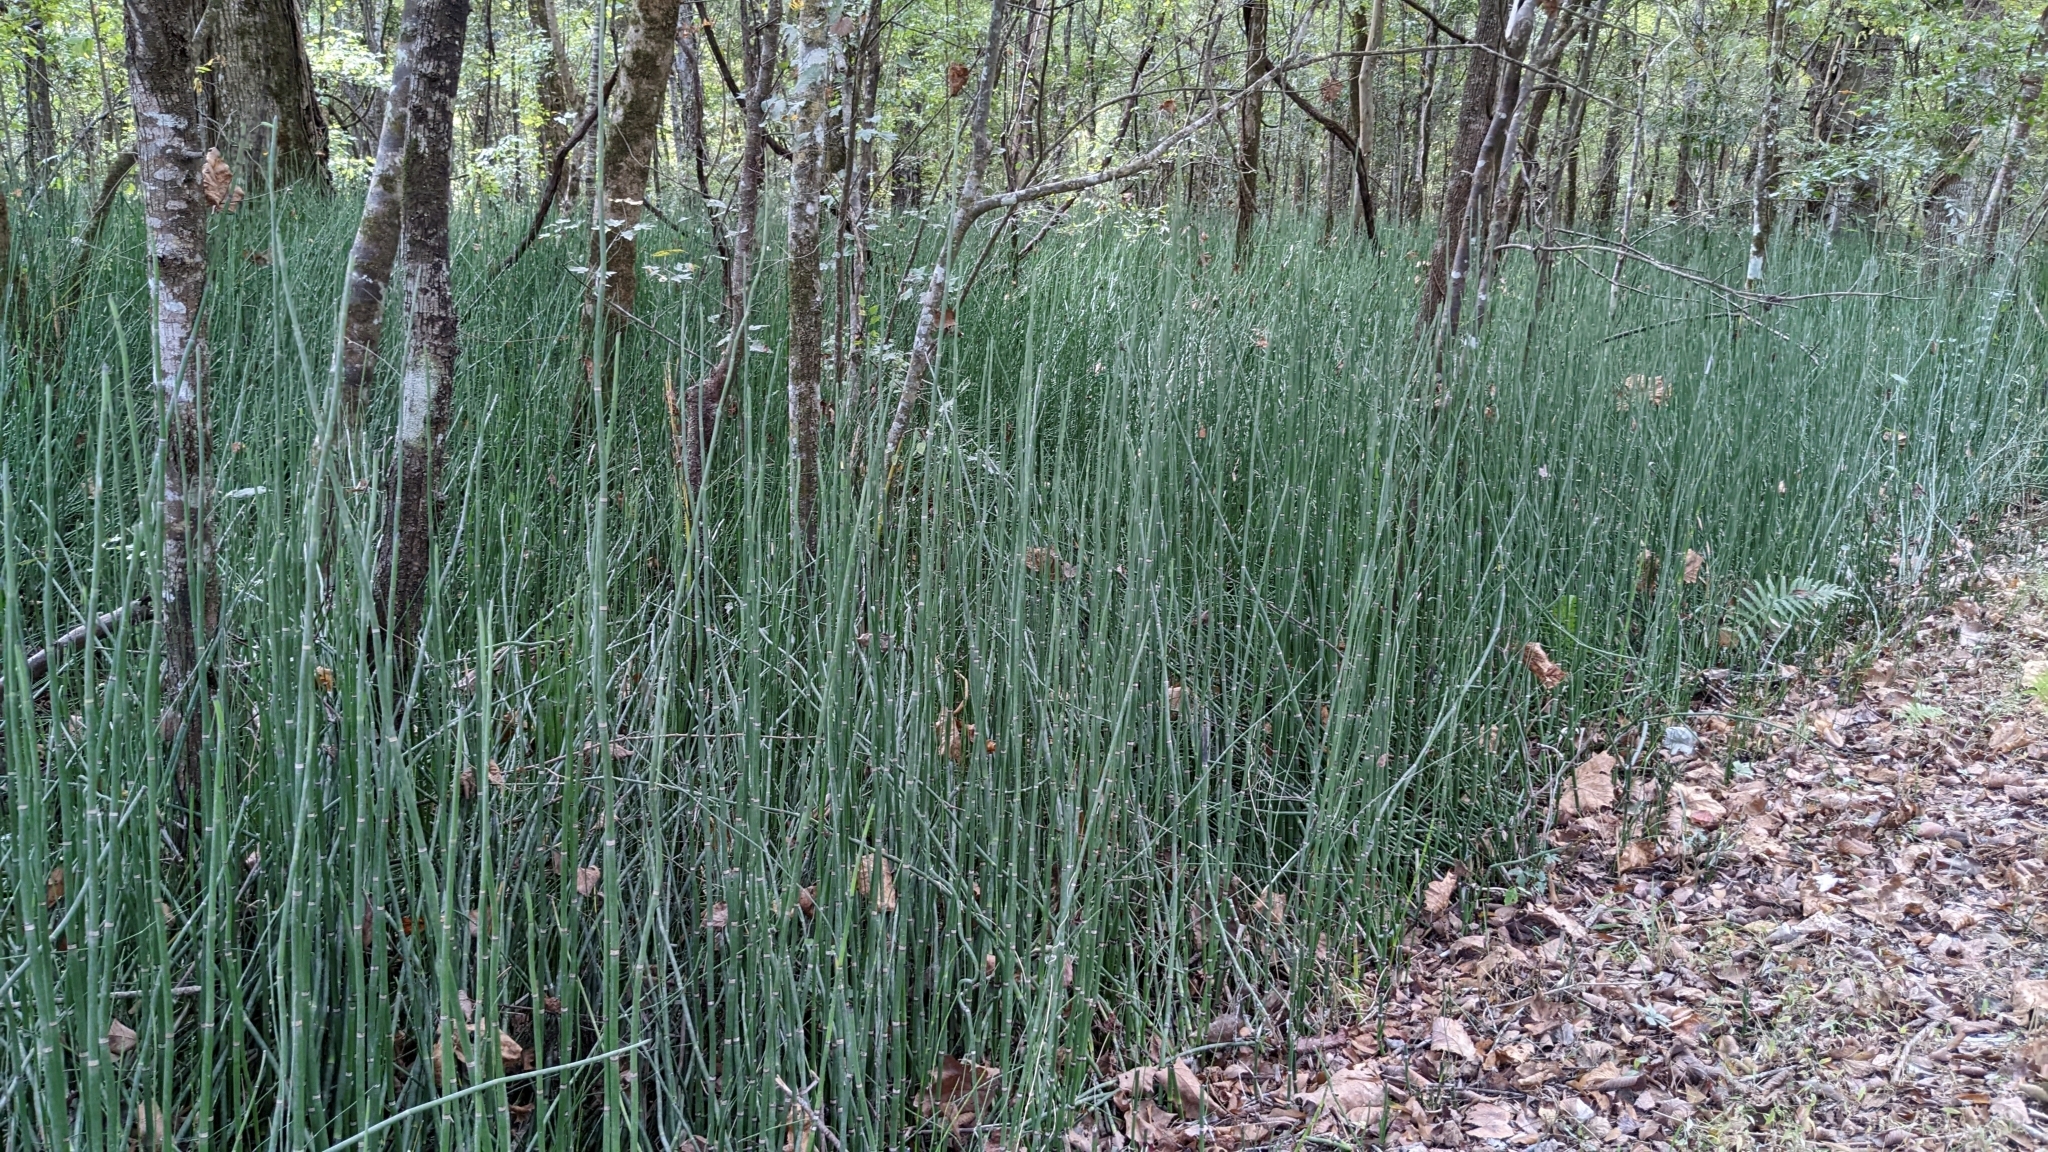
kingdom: Plantae
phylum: Tracheophyta
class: Polypodiopsida
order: Equisetales
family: Equisetaceae
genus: Equisetum
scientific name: Equisetum hyemale
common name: Rough horsetail
